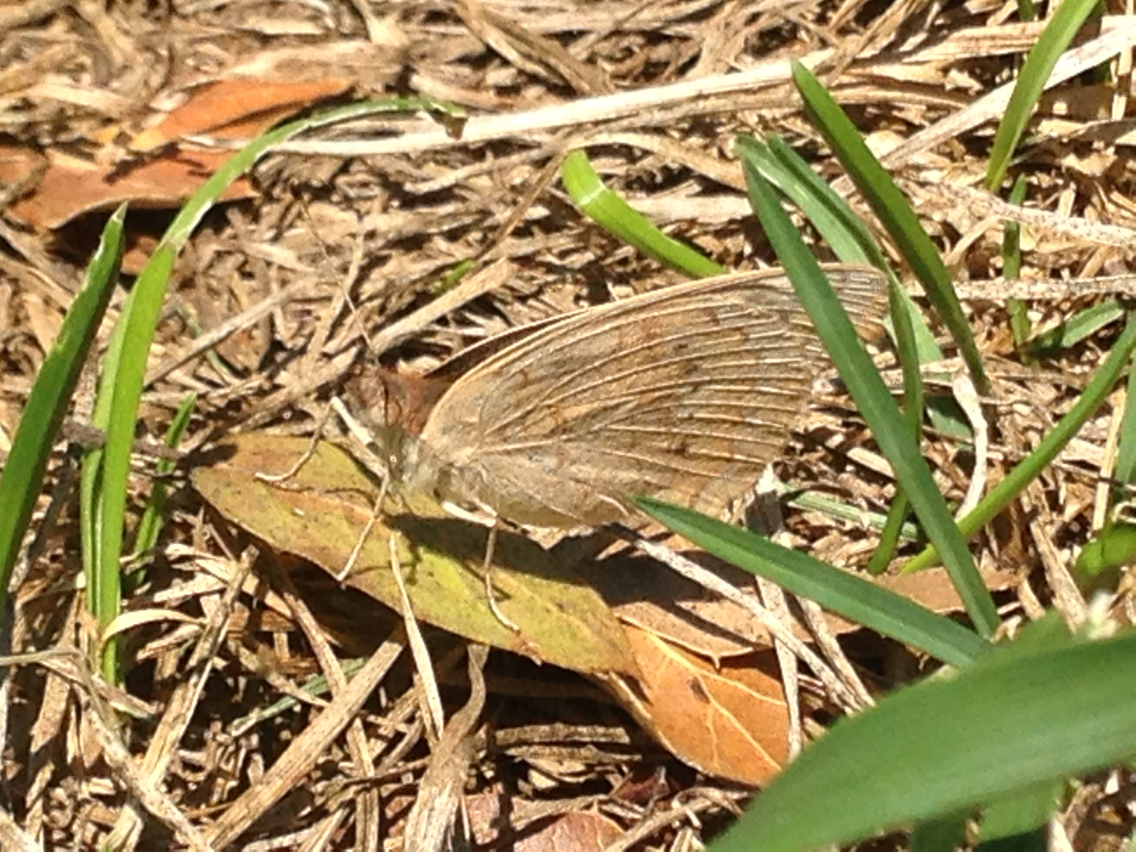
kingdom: Animalia
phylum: Arthropoda
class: Insecta
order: Lepidoptera
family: Nymphalidae
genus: Junonia
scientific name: Junonia grisea
